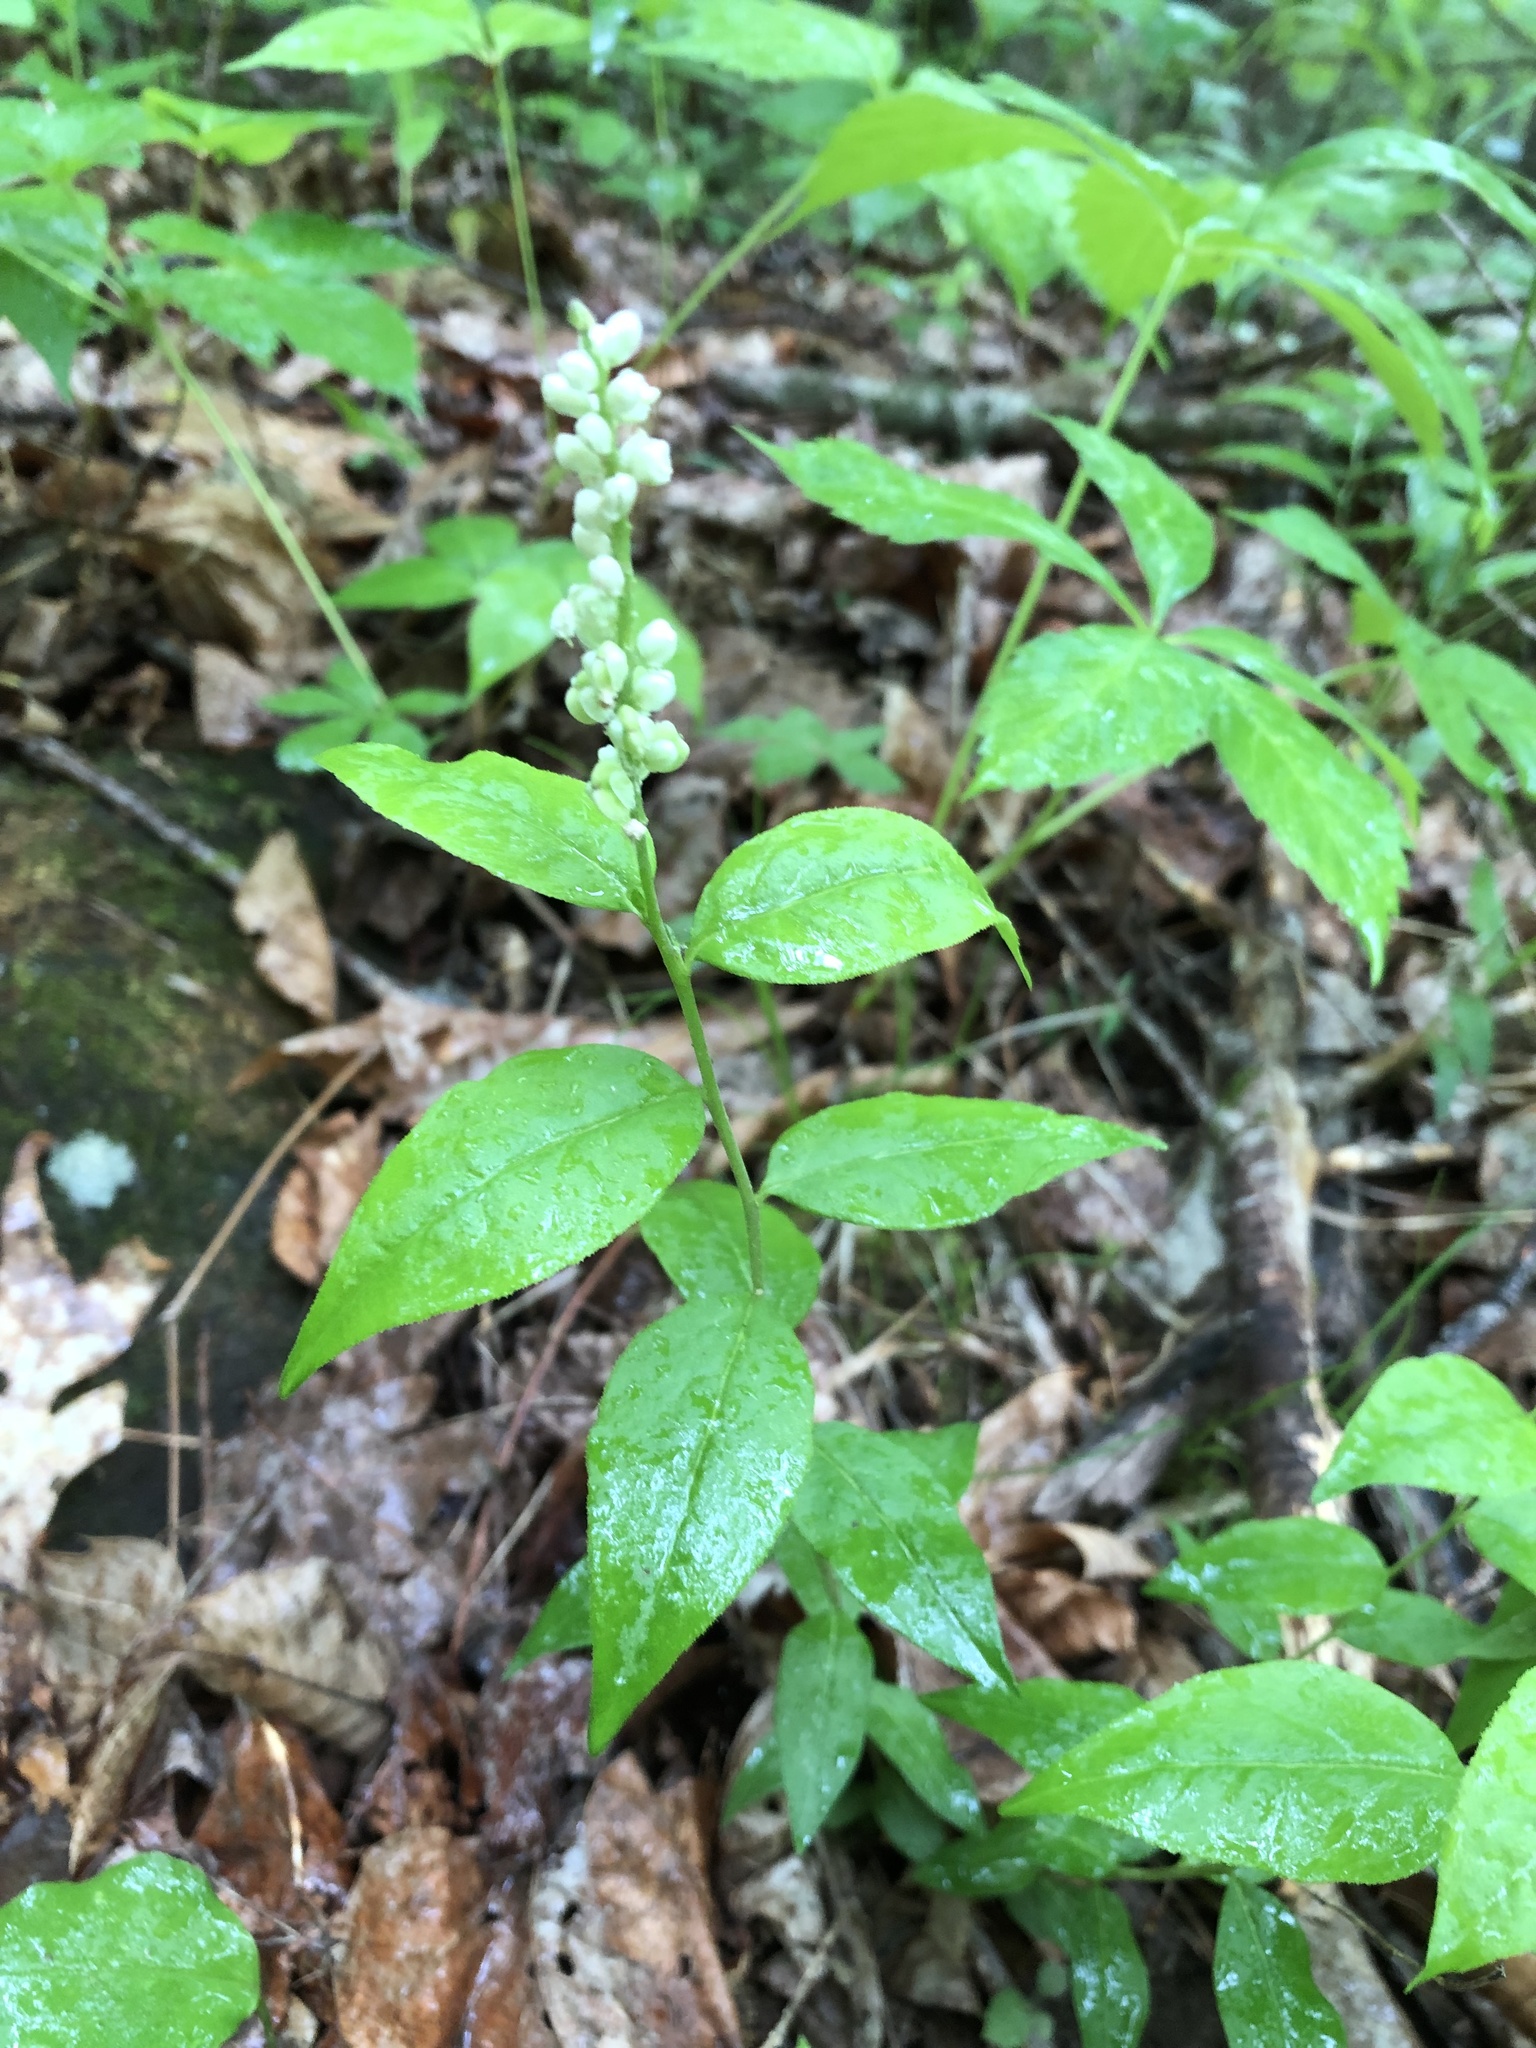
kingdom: Plantae
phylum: Tracheophyta
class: Magnoliopsida
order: Fabales
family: Polygalaceae
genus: Polygala
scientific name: Polygala senega
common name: Seneca snakeroot
